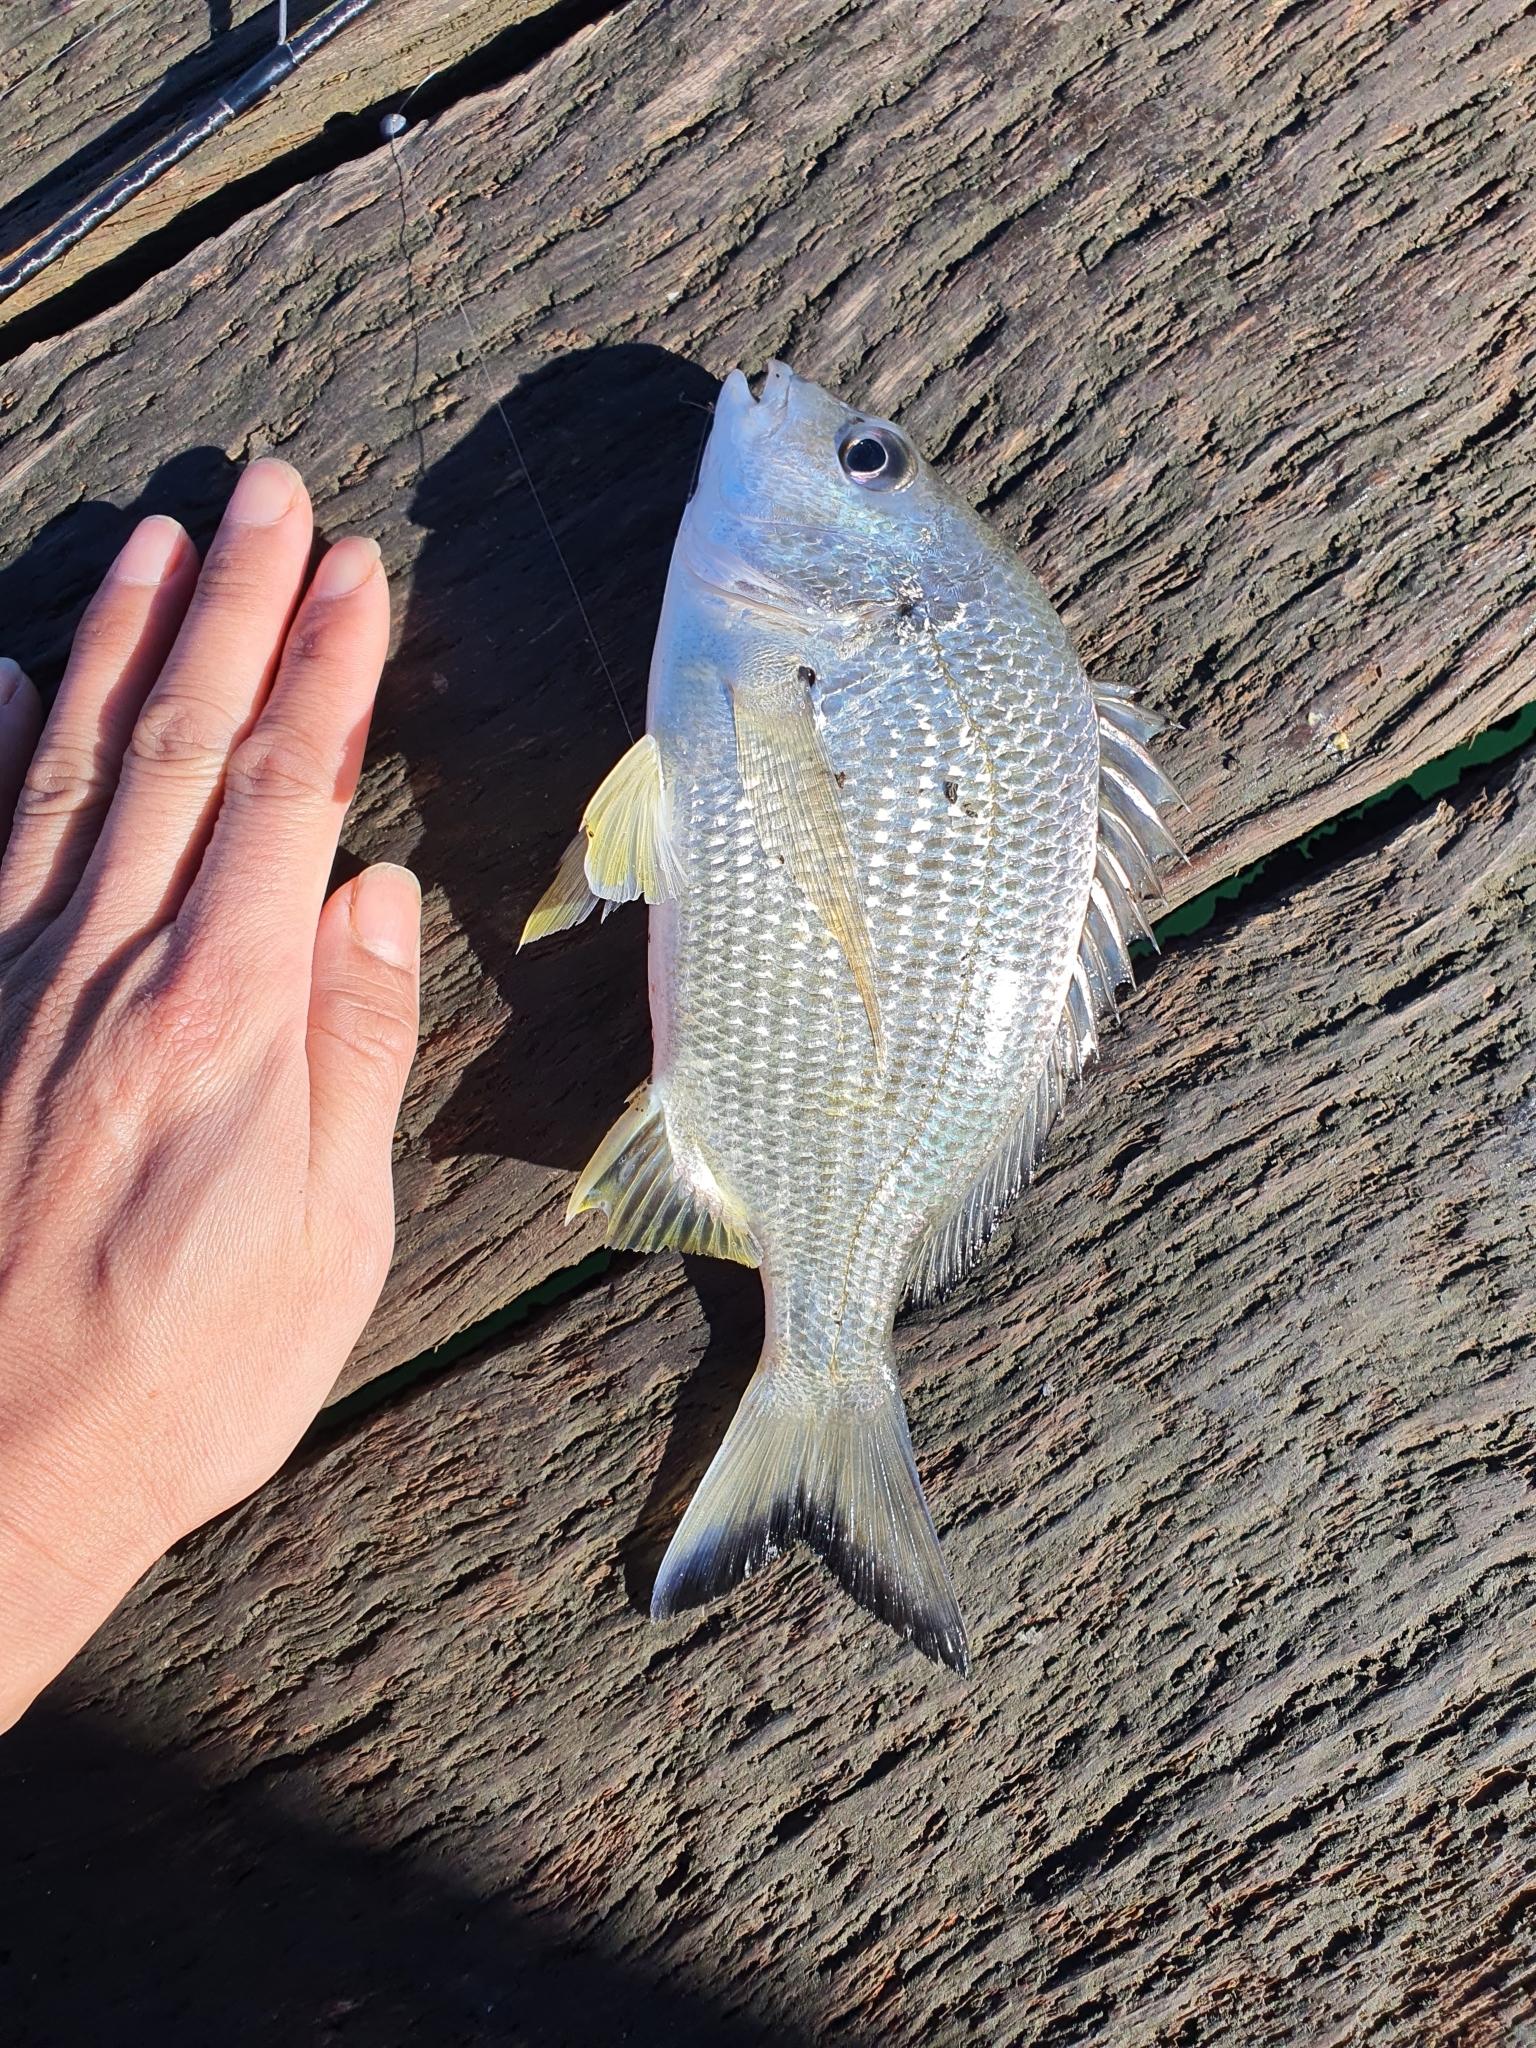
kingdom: Animalia
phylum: Chordata
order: Perciformes
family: Sparidae
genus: Acanthopagrus
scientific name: Acanthopagrus australis
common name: Surf bream
